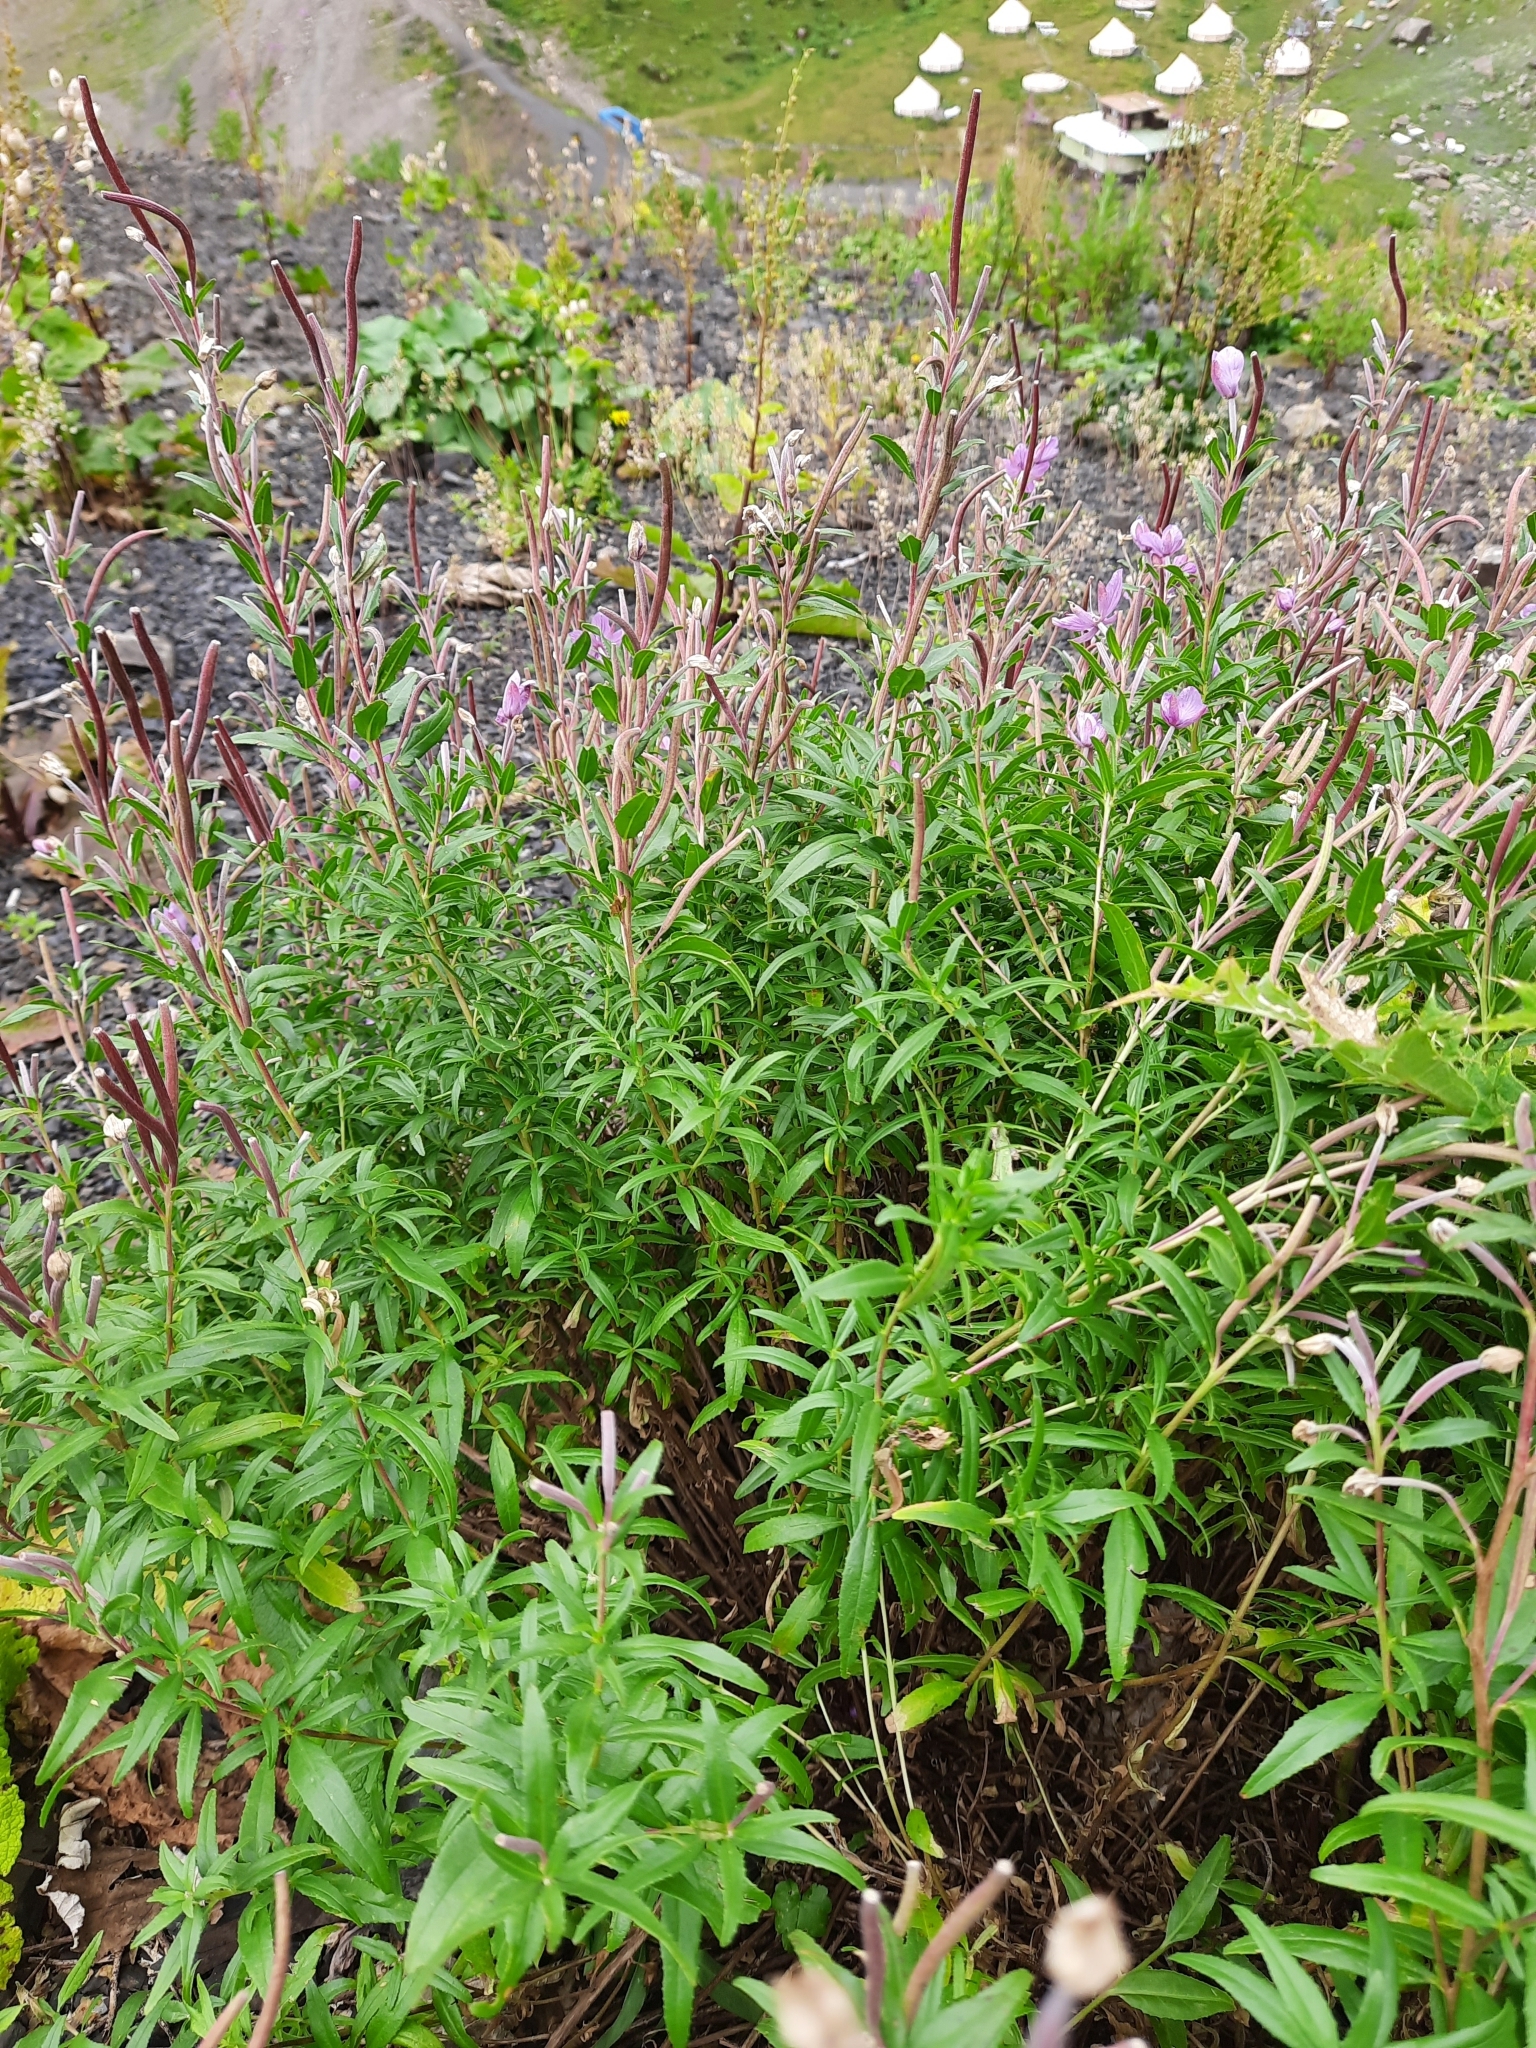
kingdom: Plantae
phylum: Tracheophyta
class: Magnoliopsida
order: Myrtales
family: Onagraceae
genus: Chamaenerion
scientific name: Chamaenerion colchicum
